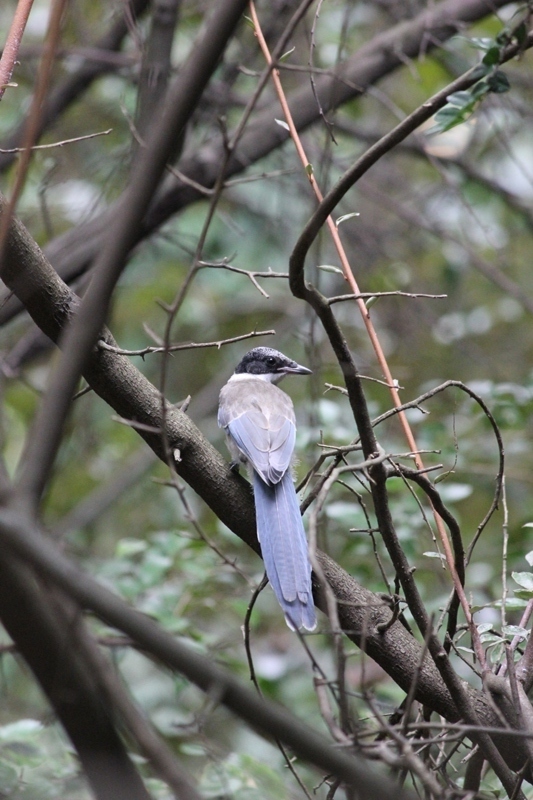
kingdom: Animalia
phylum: Chordata
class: Aves
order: Passeriformes
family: Corvidae
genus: Cyanopica
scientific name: Cyanopica cyanus
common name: Azure-winged magpie
